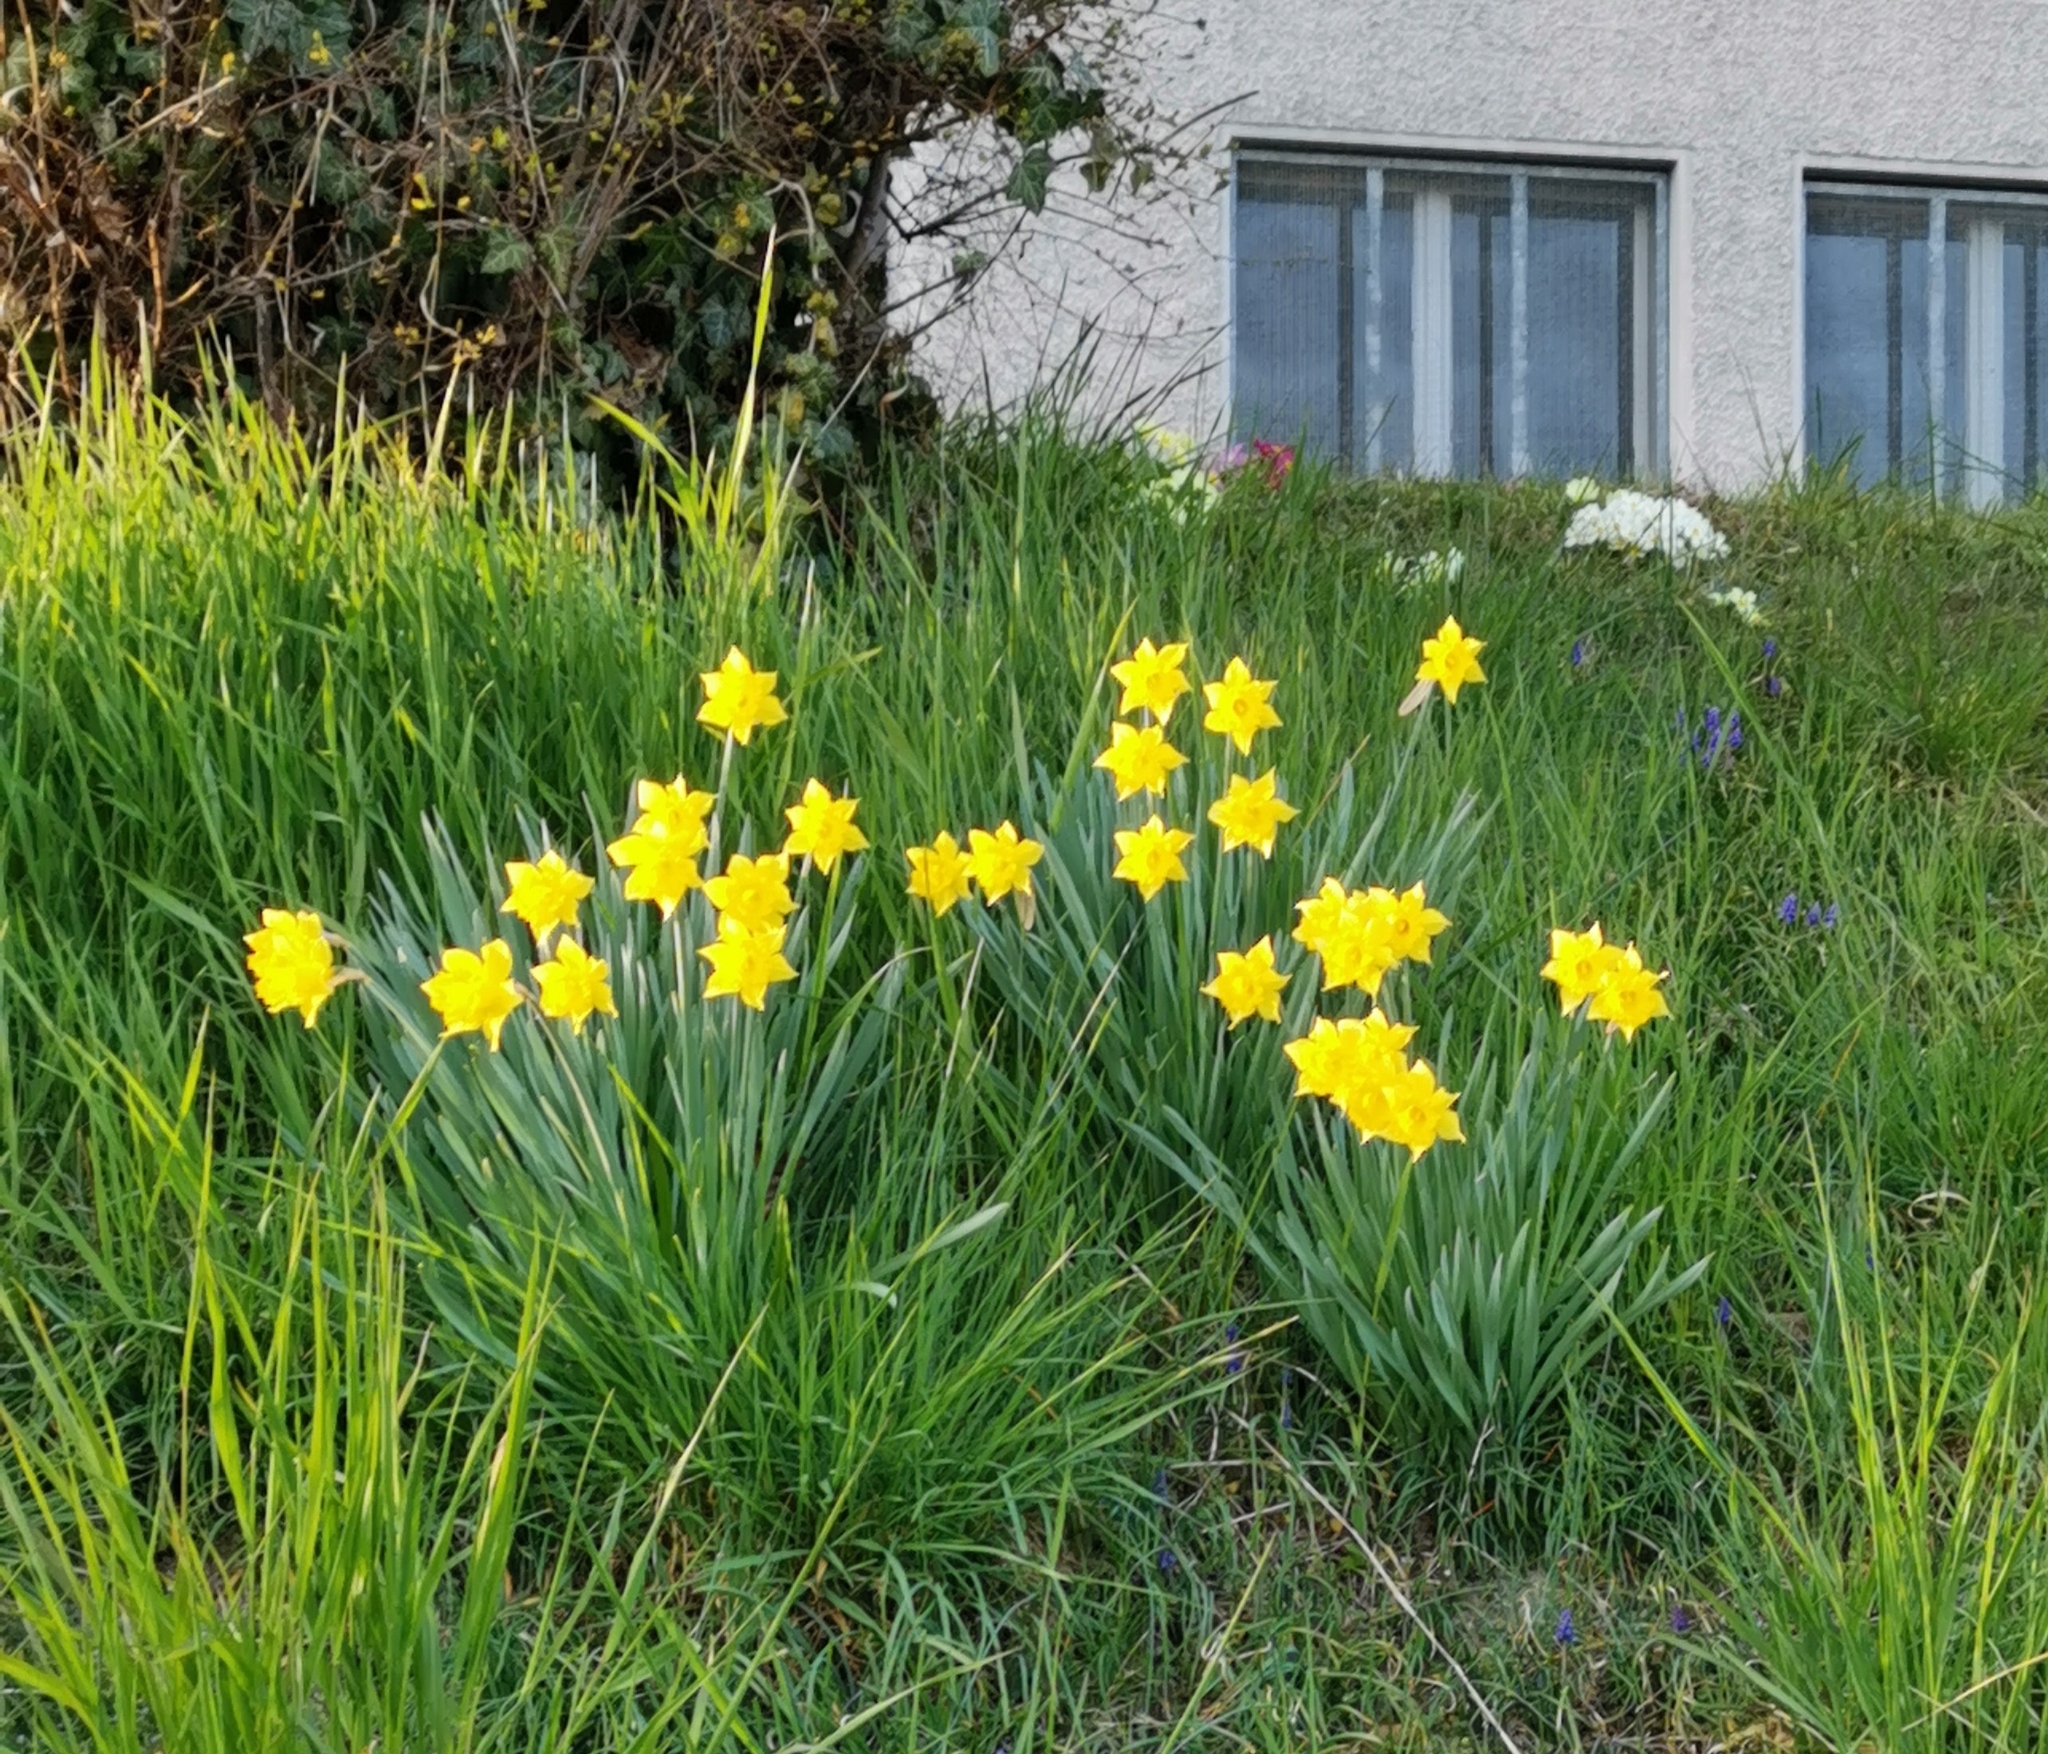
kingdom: Plantae
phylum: Tracheophyta
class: Liliopsida
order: Asparagales
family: Amaryllidaceae
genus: Narcissus
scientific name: Narcissus pseudonarcissus
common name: Daffodil
